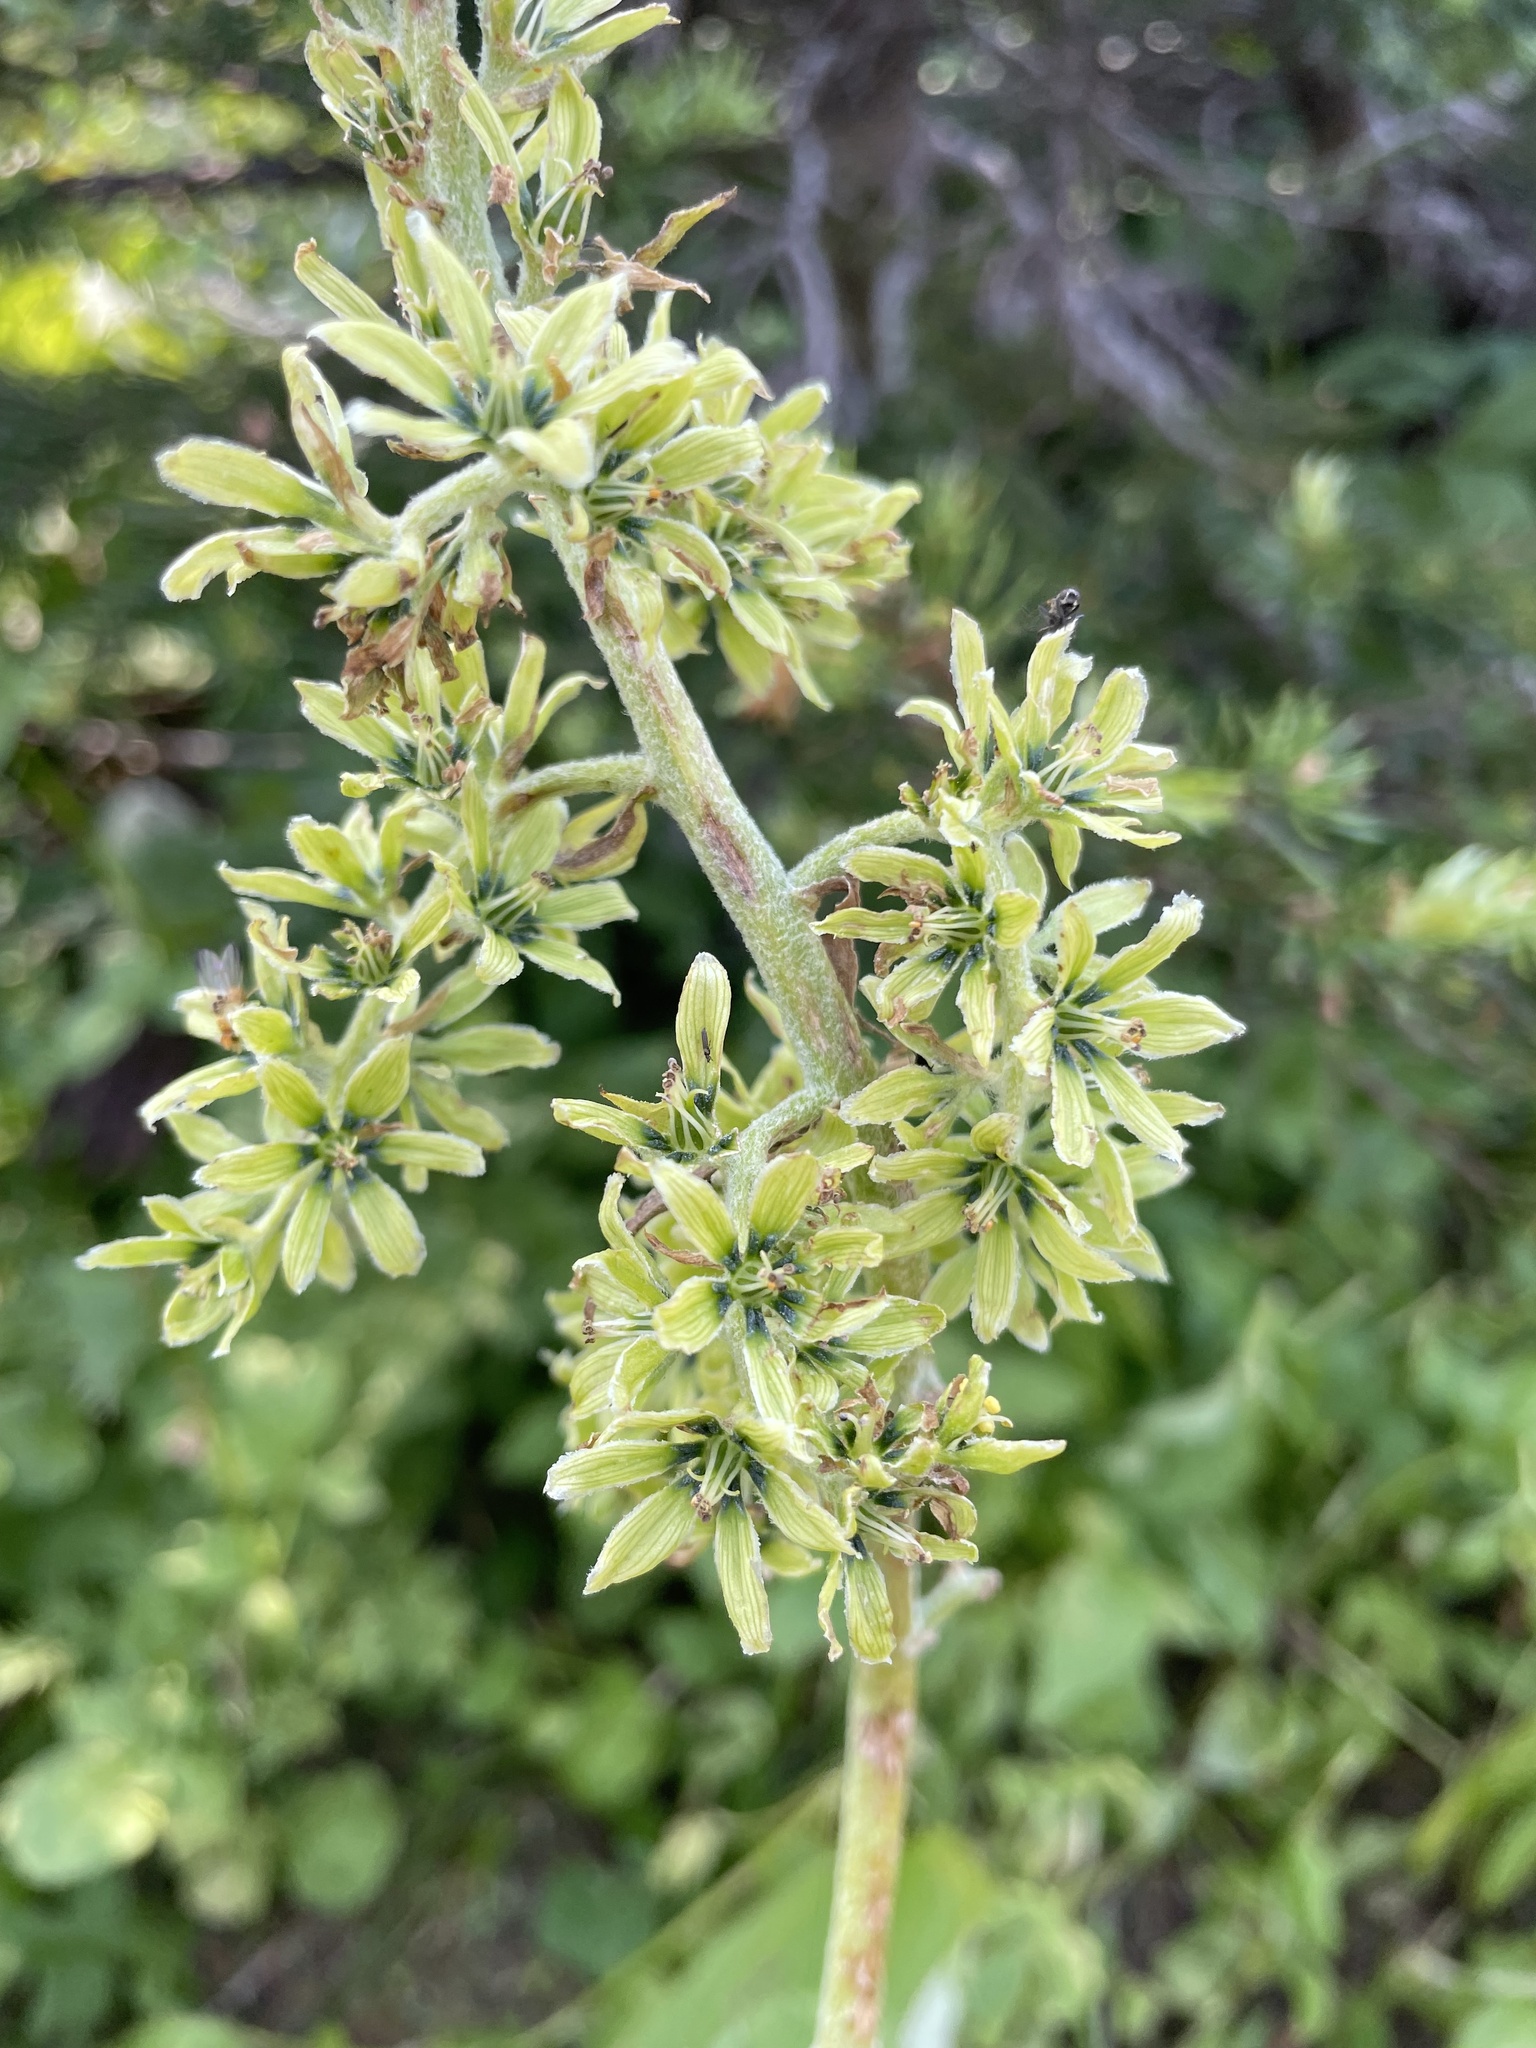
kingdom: Plantae
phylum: Tracheophyta
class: Liliopsida
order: Liliales
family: Melanthiaceae
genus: Veratrum
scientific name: Veratrum viride
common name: American false hellebore
